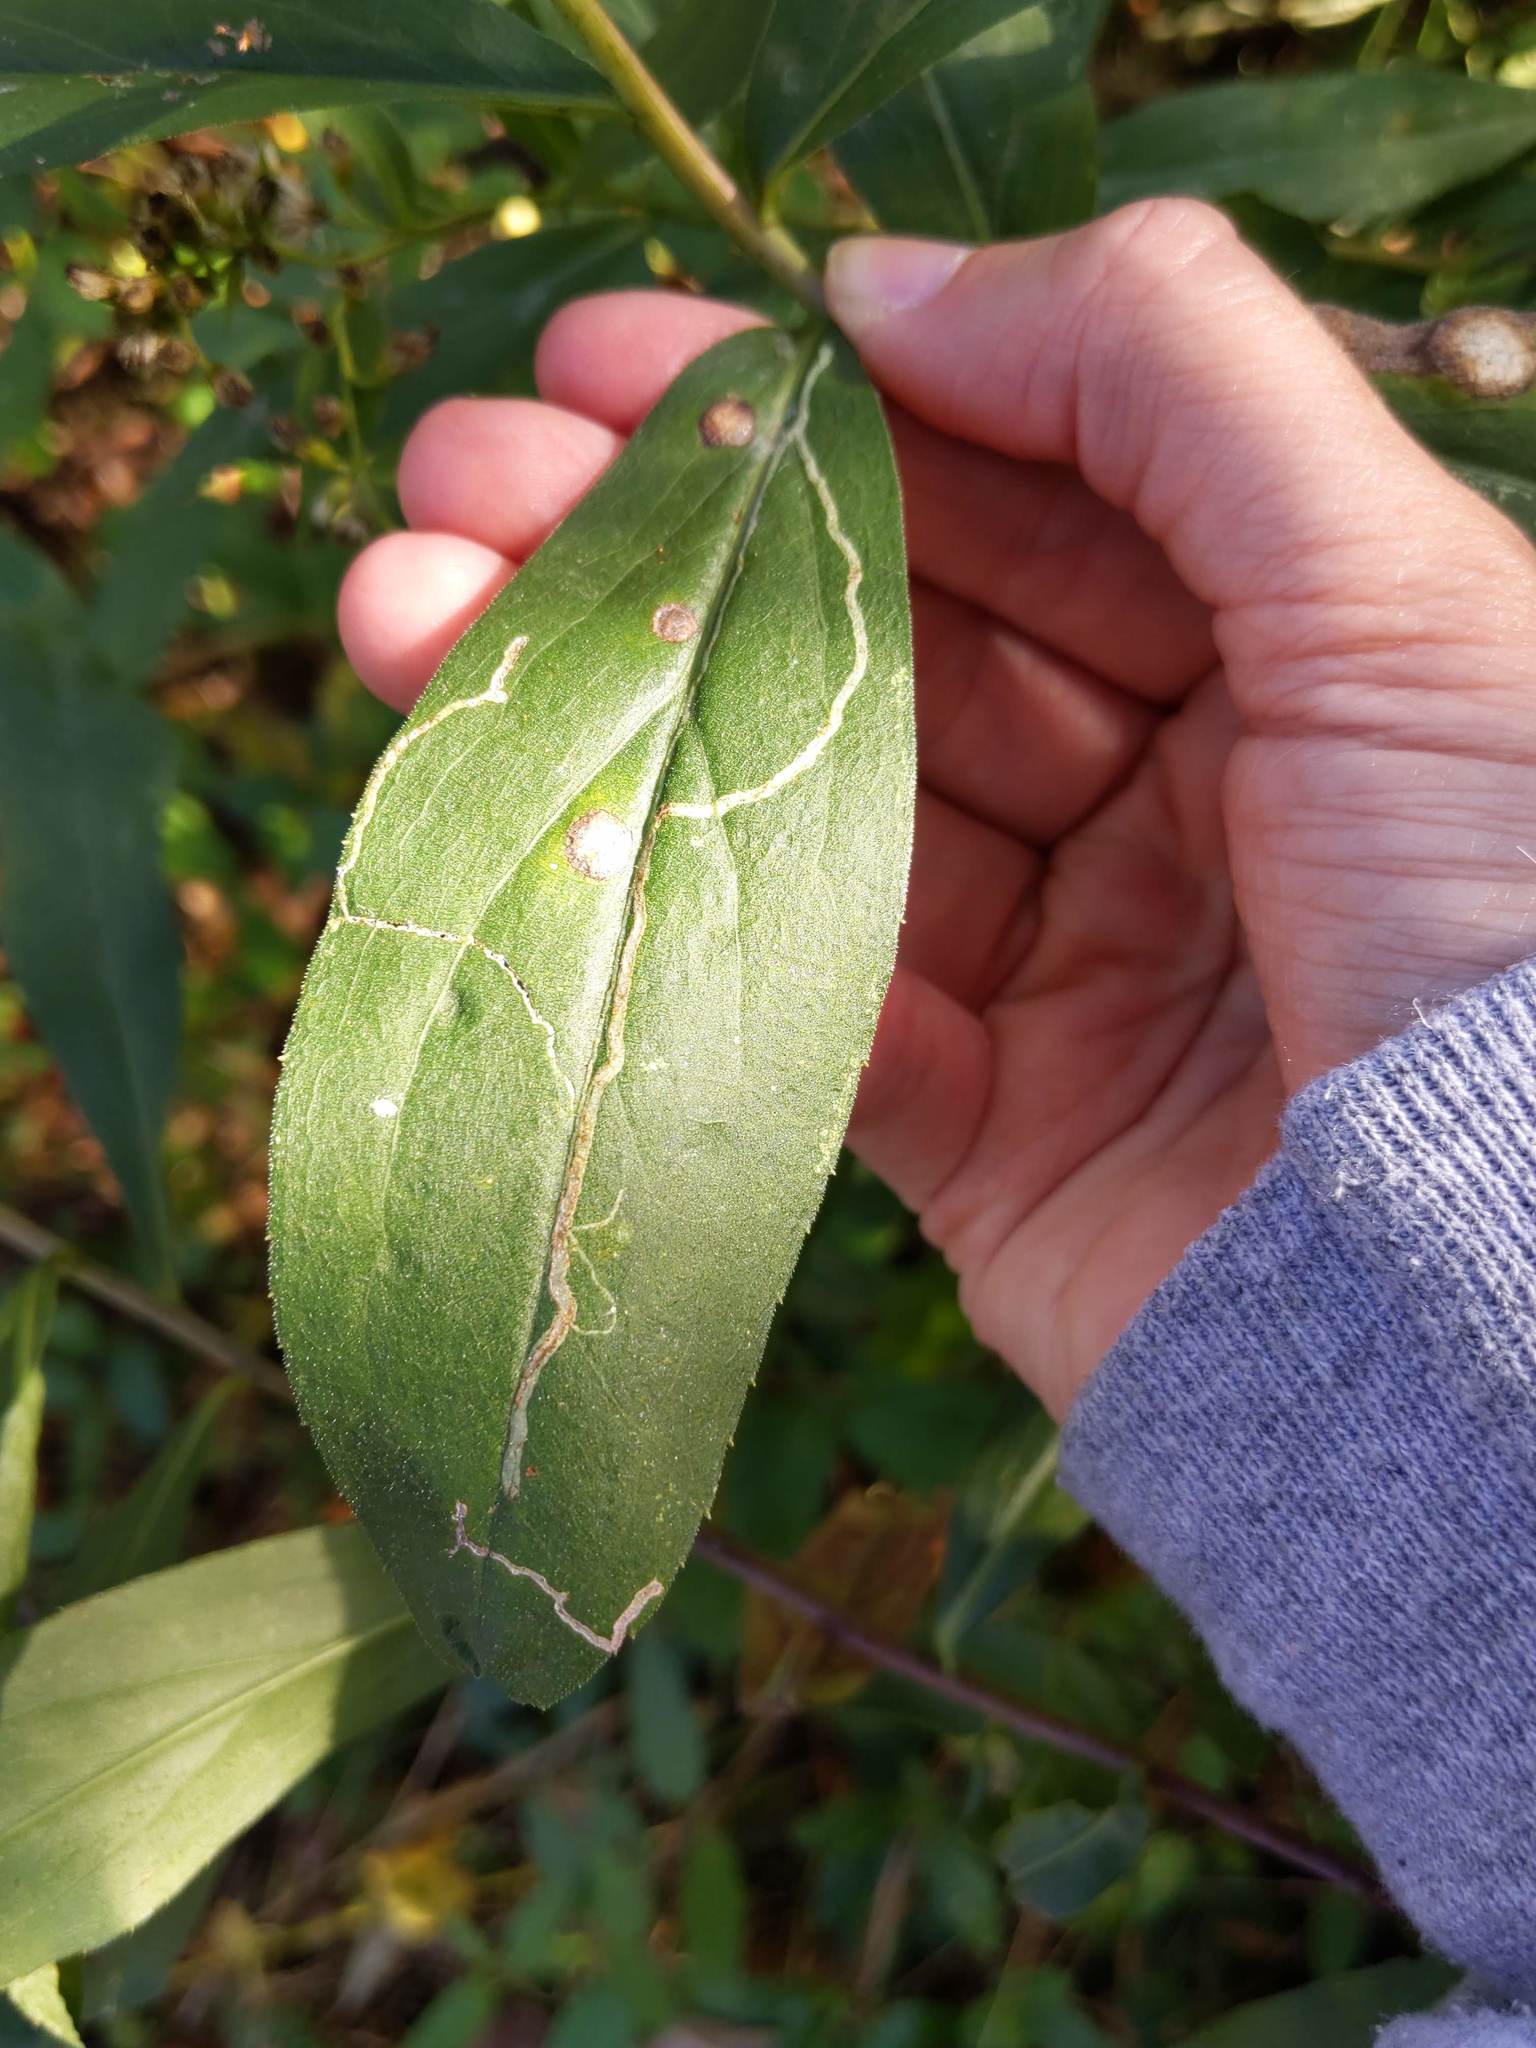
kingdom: Animalia
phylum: Arthropoda
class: Insecta
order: Diptera
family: Agromyzidae
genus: Ophiomyia
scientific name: Ophiomyia maura
